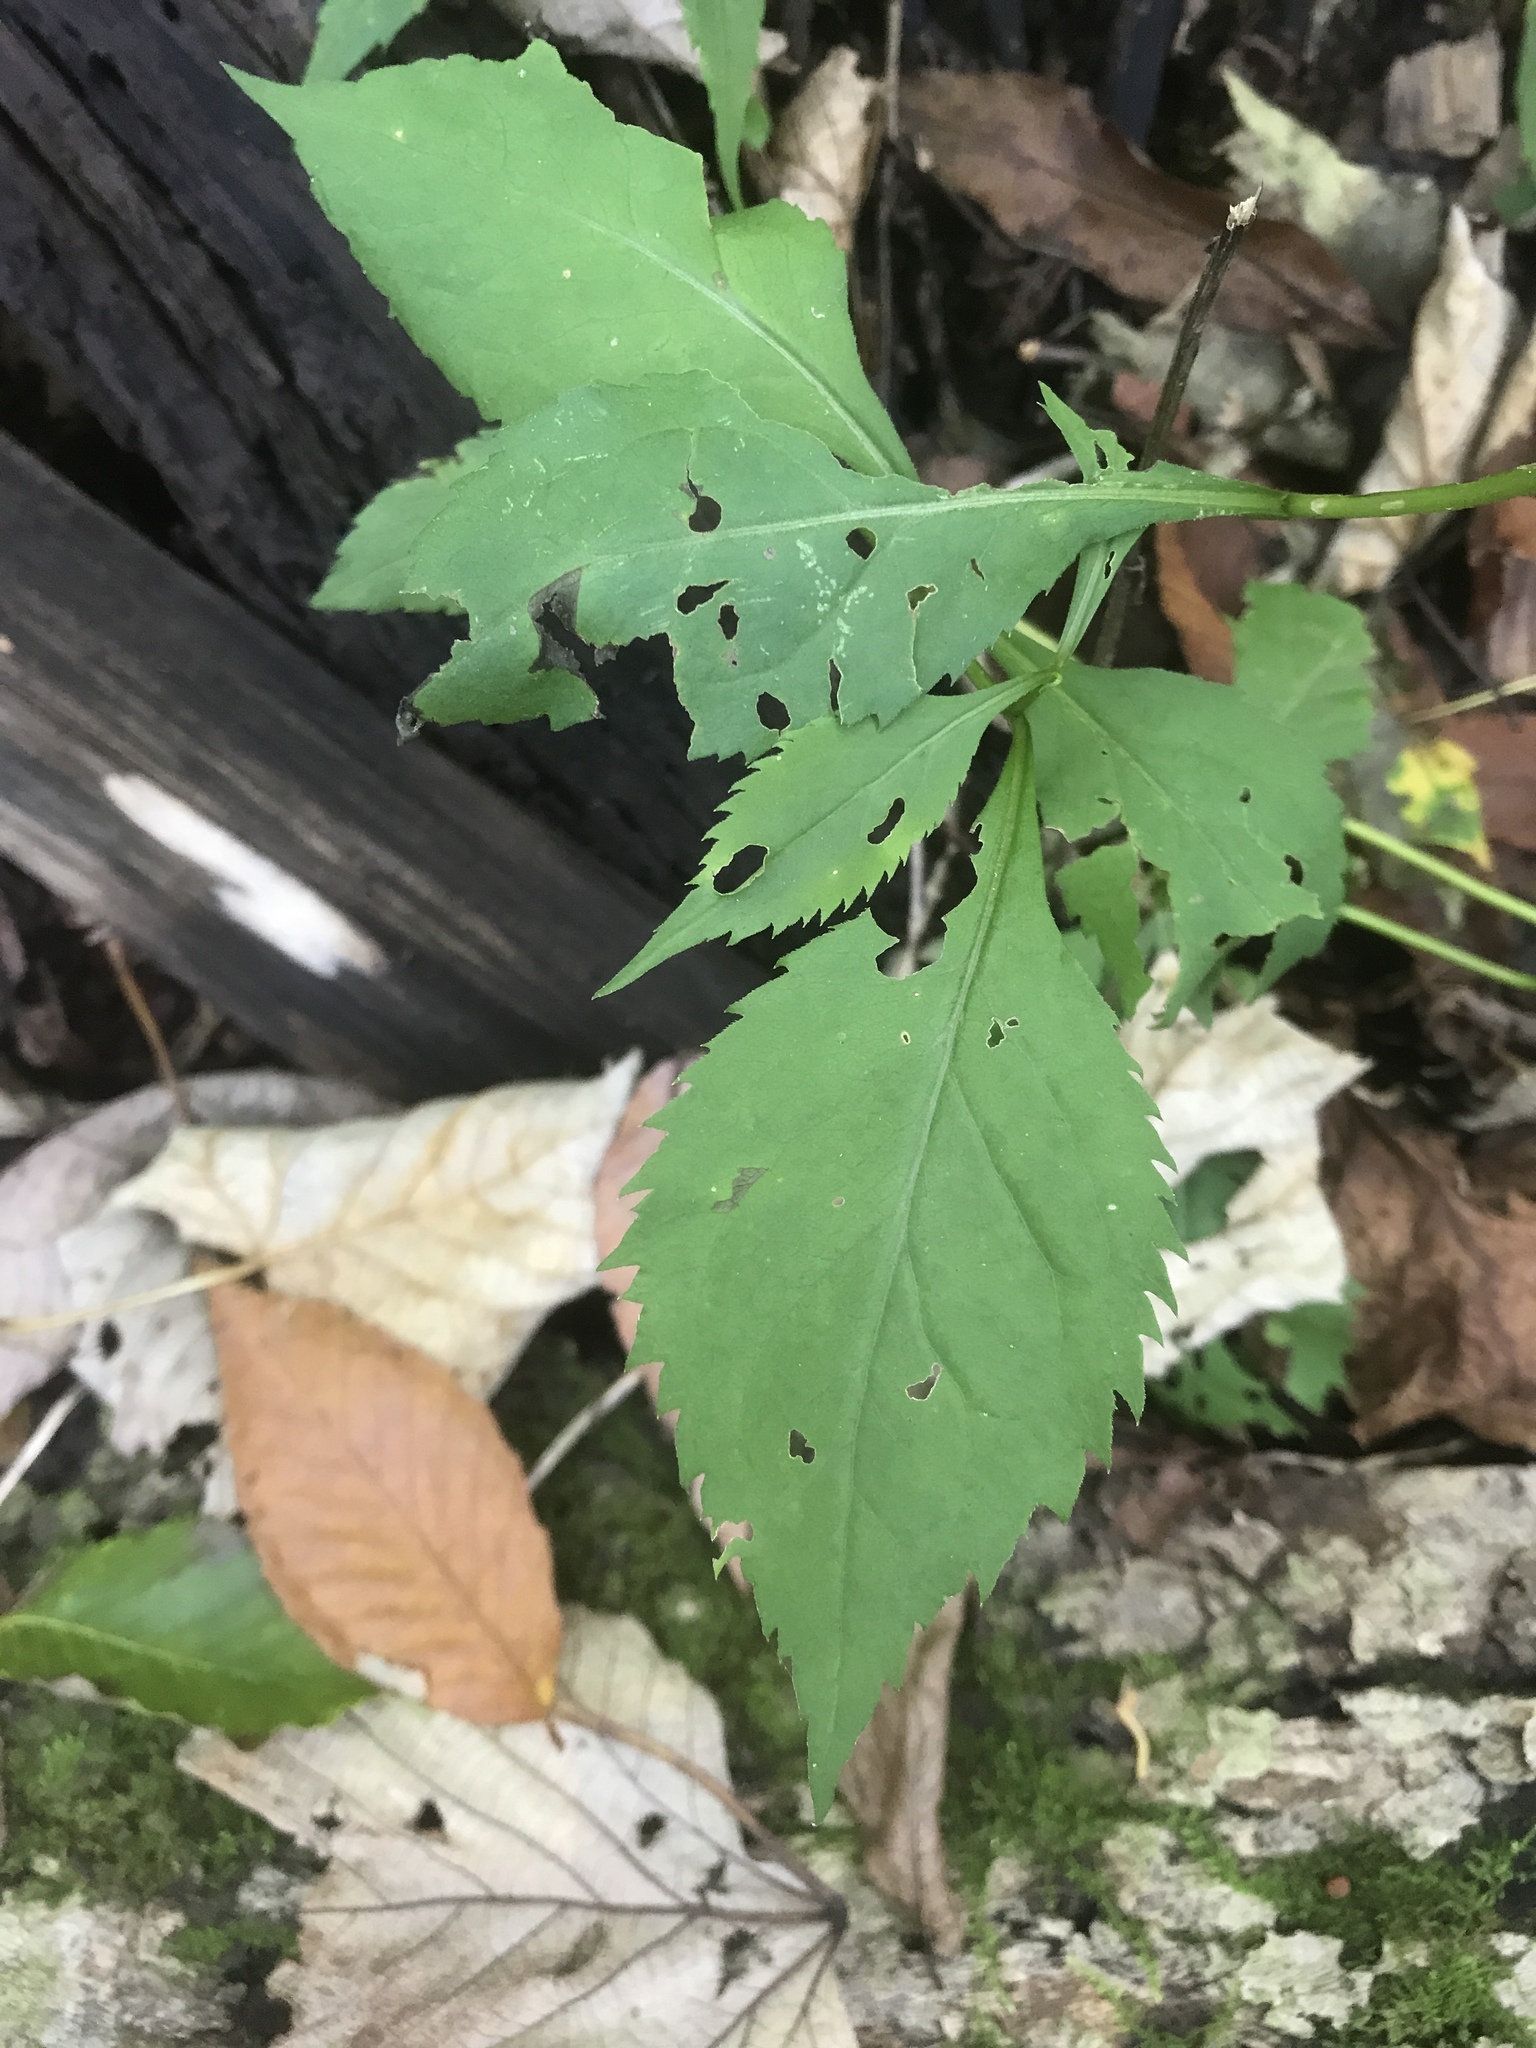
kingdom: Plantae
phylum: Tracheophyta
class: Magnoliopsida
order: Asterales
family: Asteraceae
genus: Solidago
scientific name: Solidago flexicaulis
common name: Zig-zag goldenrod
